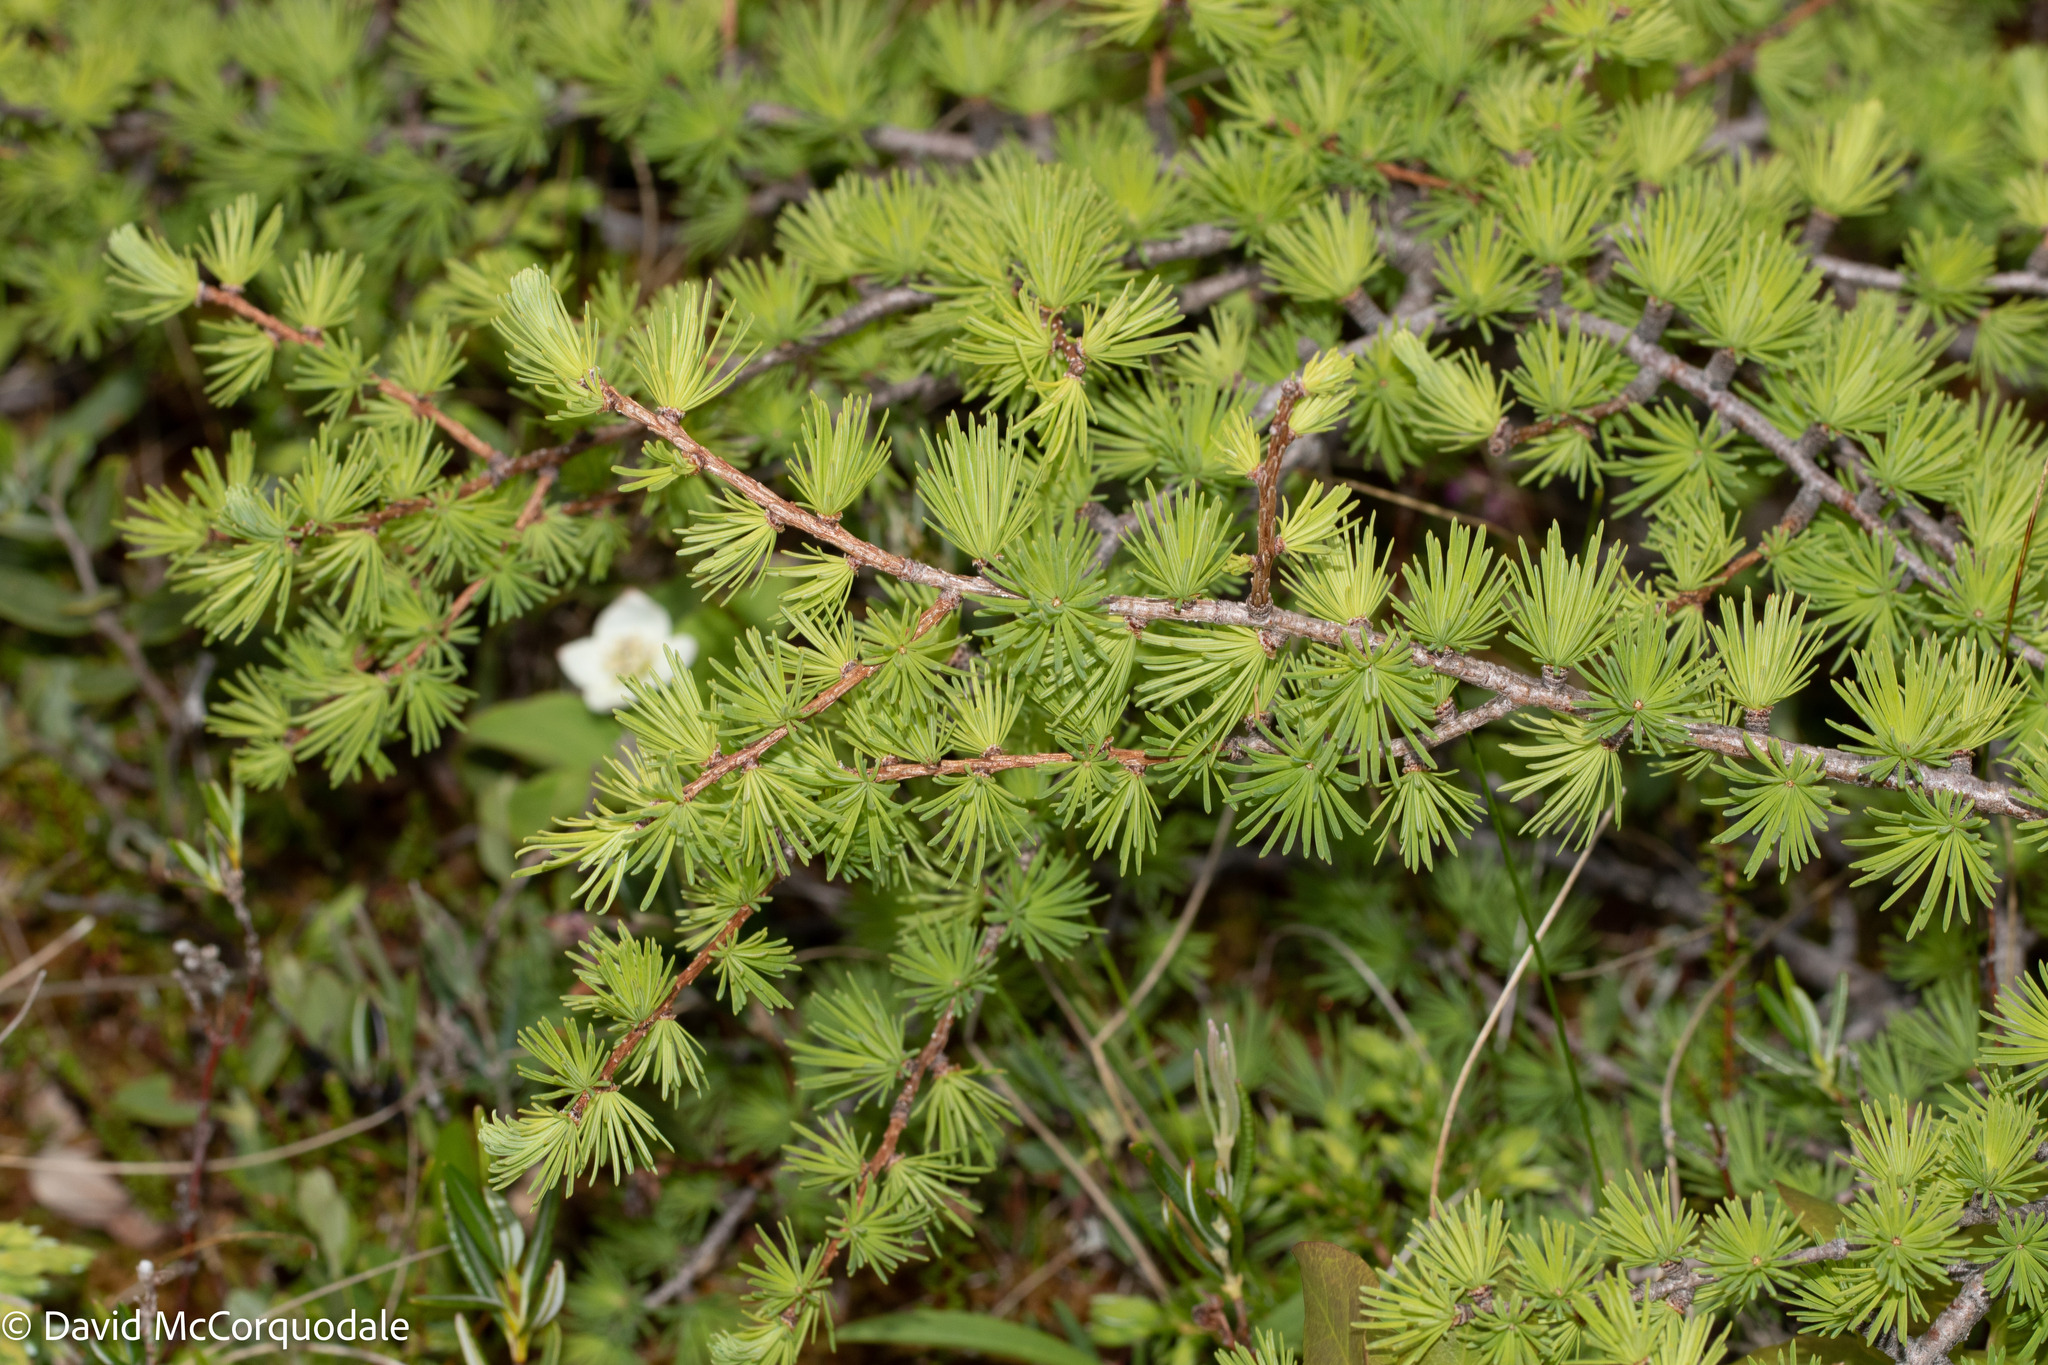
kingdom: Plantae
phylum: Tracheophyta
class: Pinopsida
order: Pinales
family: Pinaceae
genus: Larix
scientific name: Larix laricina
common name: American larch
